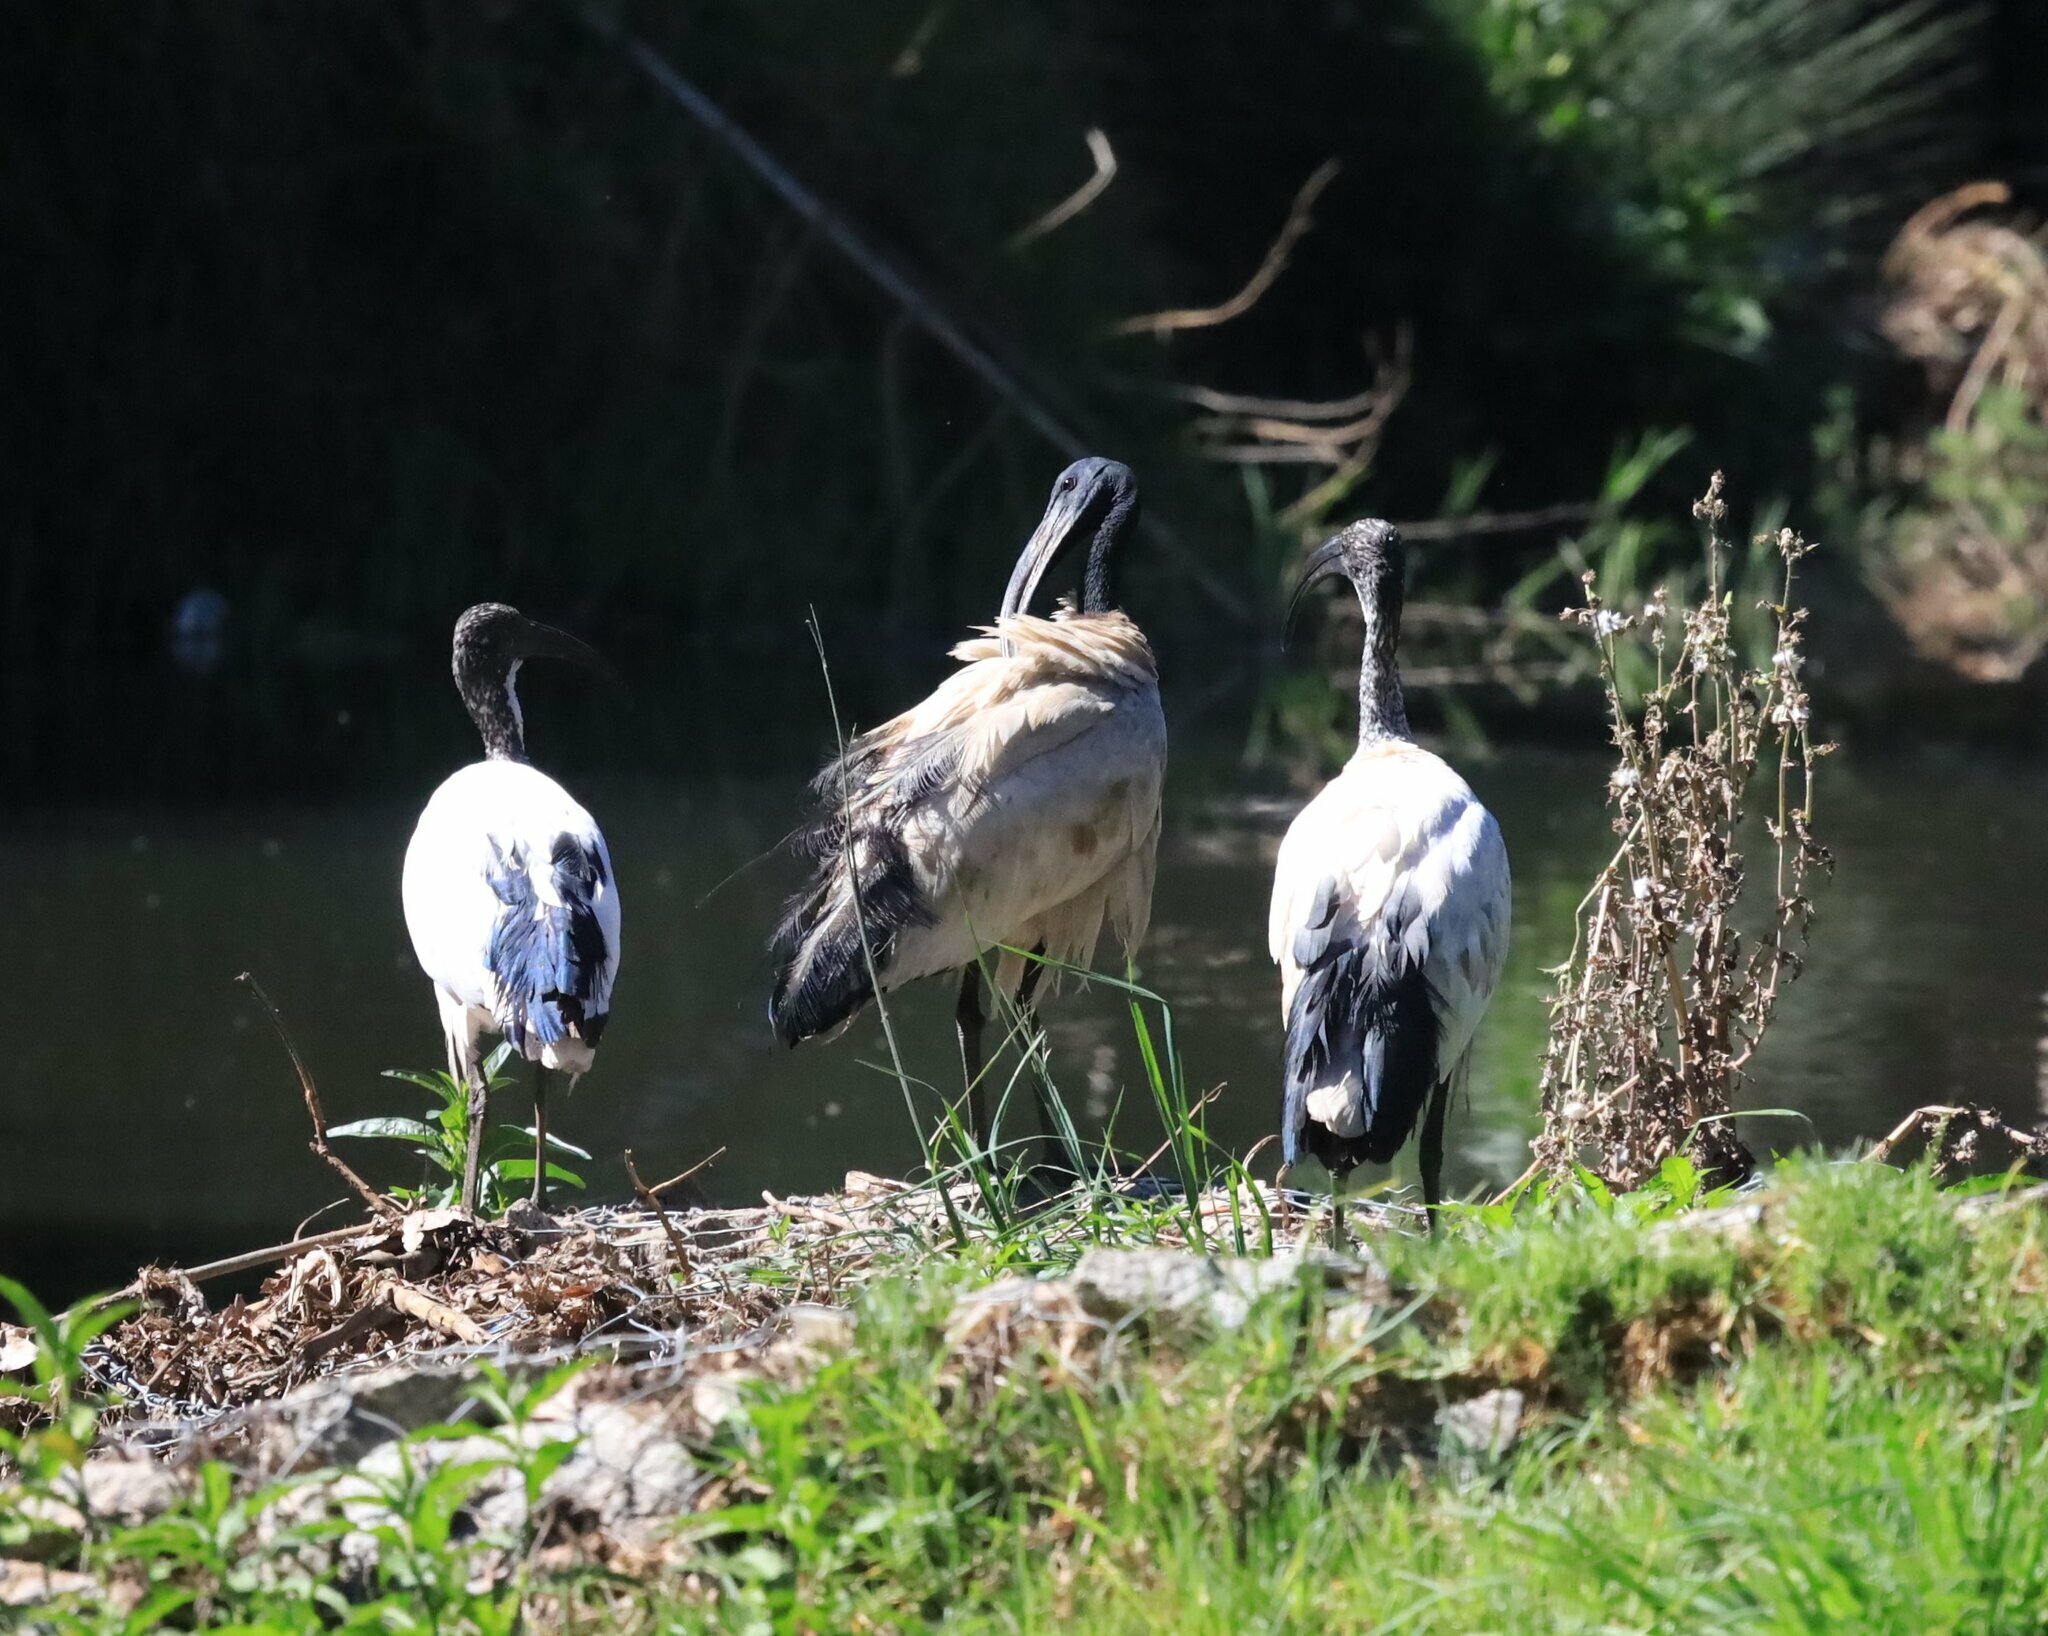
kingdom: Animalia
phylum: Chordata
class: Aves
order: Pelecaniformes
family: Threskiornithidae
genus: Threskiornis
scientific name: Threskiornis aethiopicus
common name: Sacred ibis
